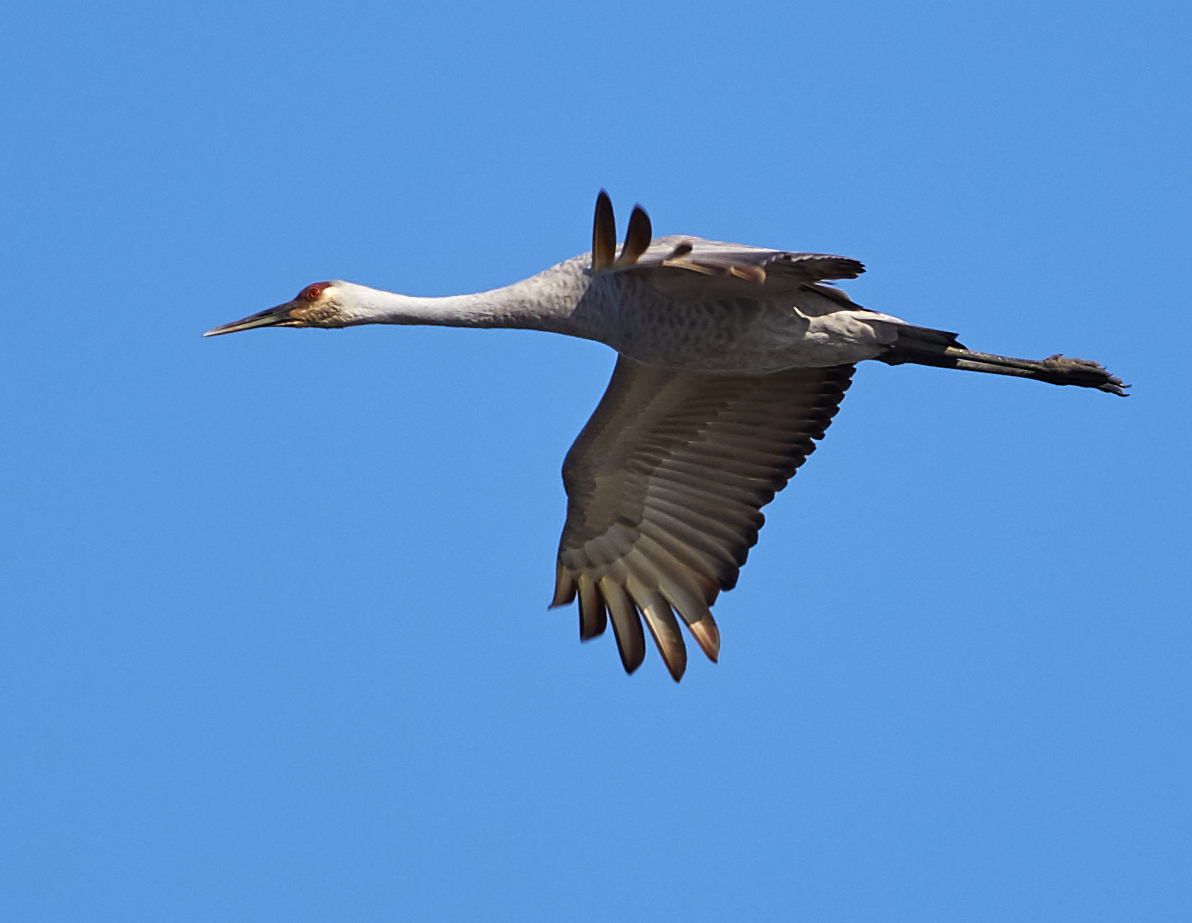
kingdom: Animalia
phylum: Chordata
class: Aves
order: Gruiformes
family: Gruidae
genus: Grus
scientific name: Grus canadensis
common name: Sandhill crane
